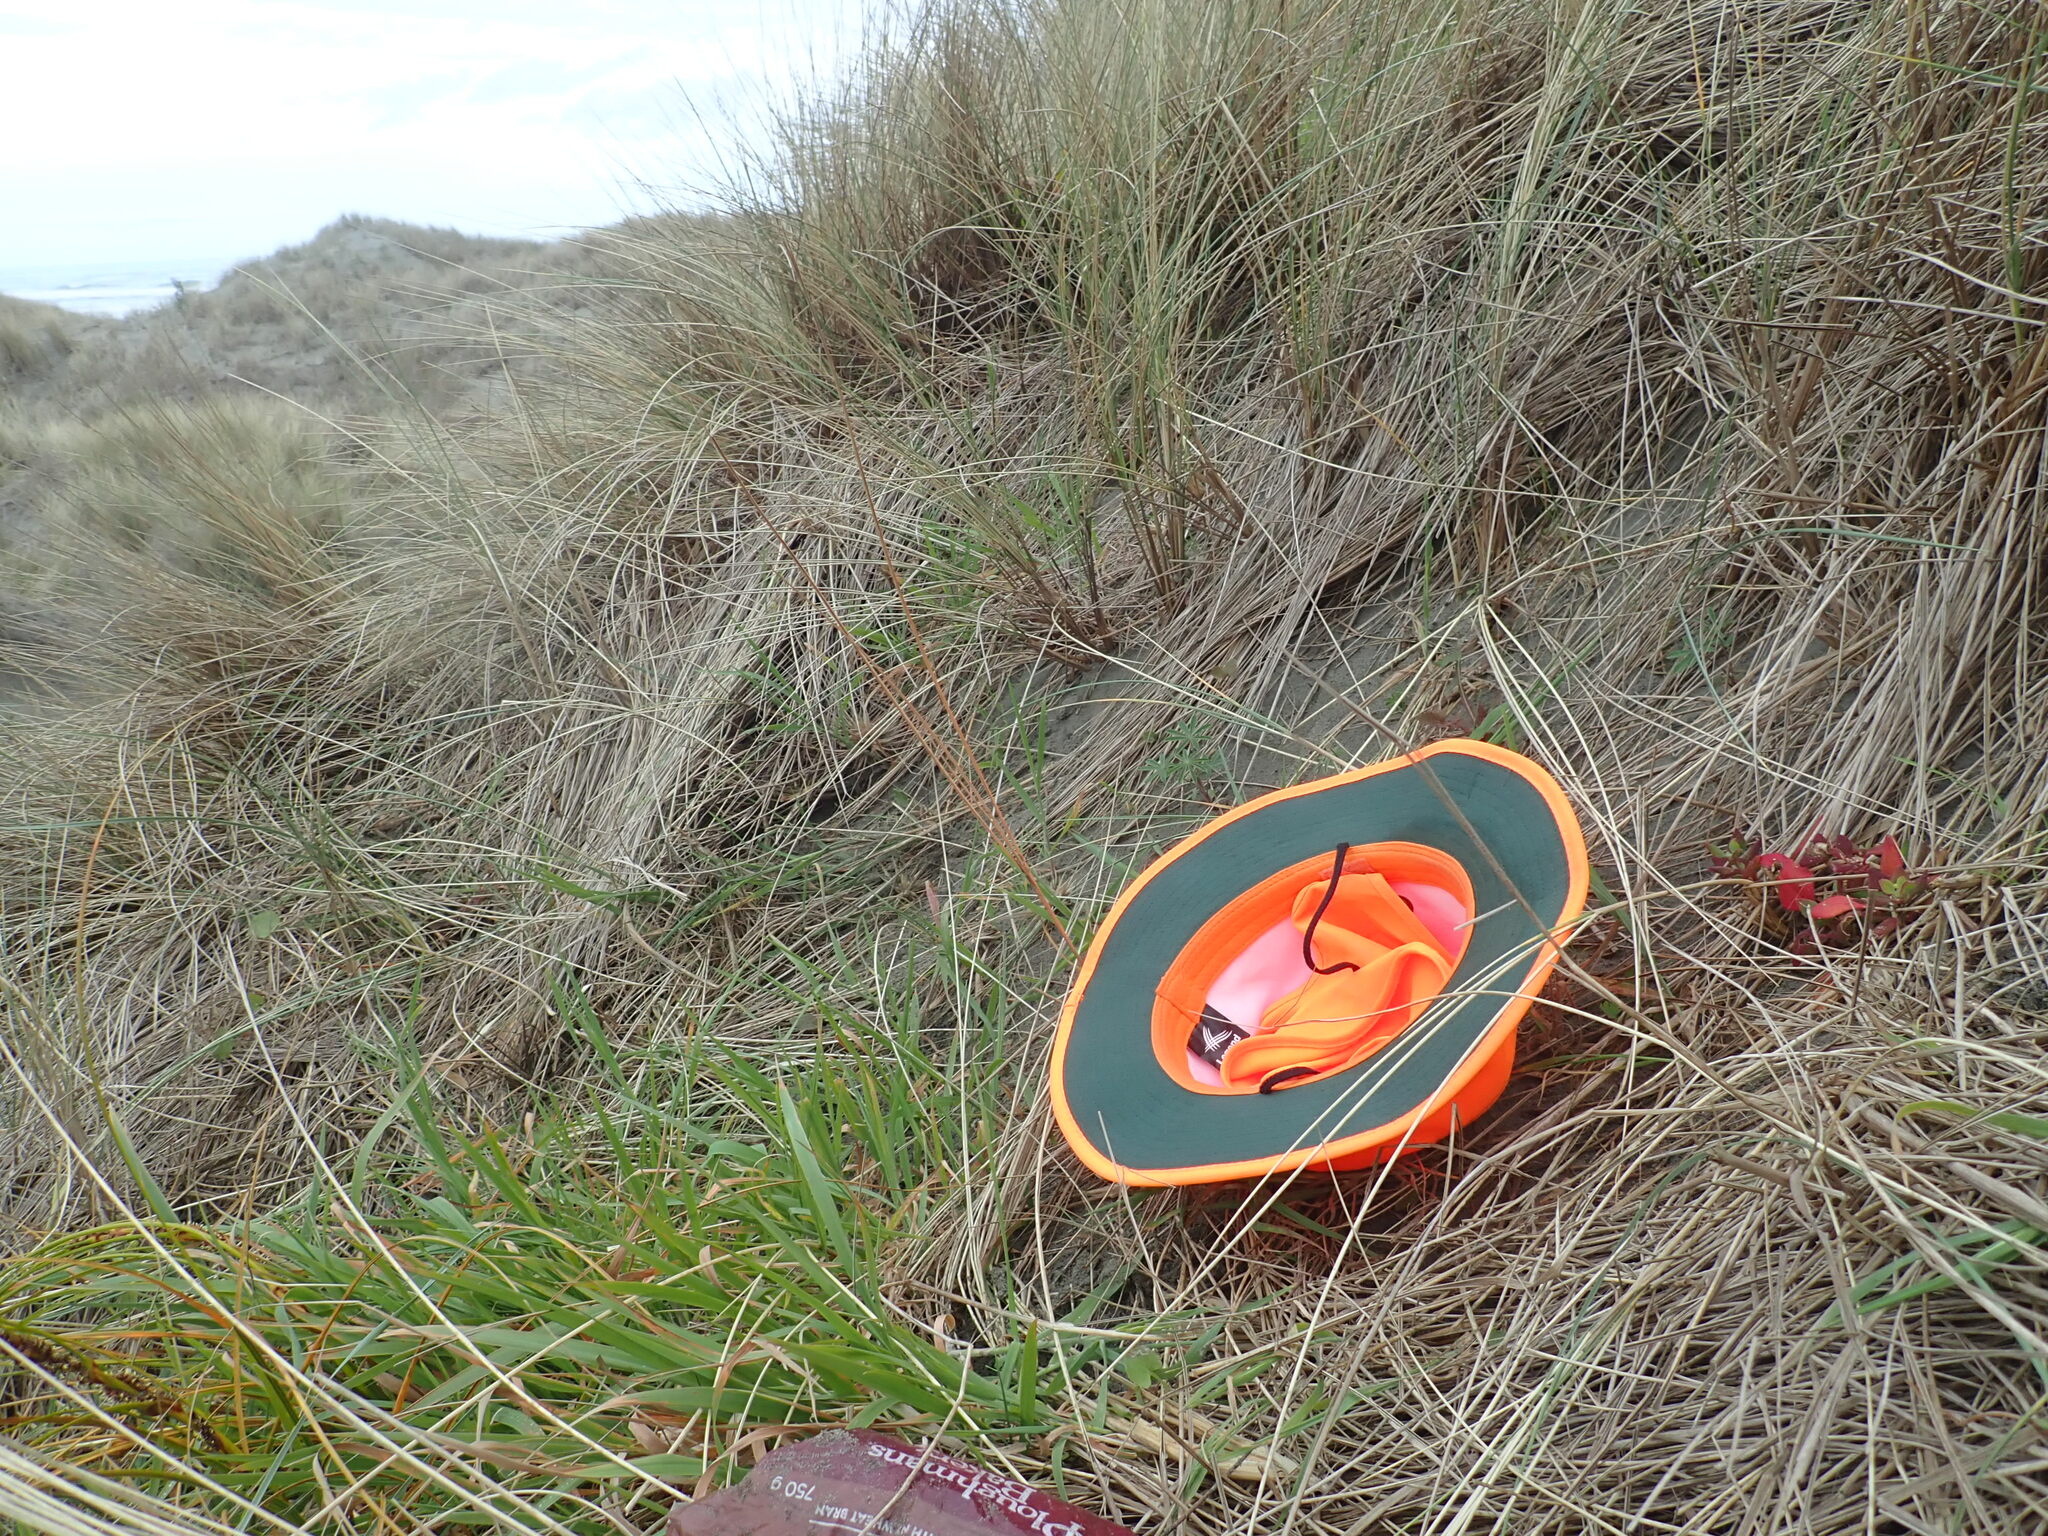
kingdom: Plantae
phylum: Tracheophyta
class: Magnoliopsida
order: Caryophyllales
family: Aizoaceae
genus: Tetragonia
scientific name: Tetragonia implexicoma
